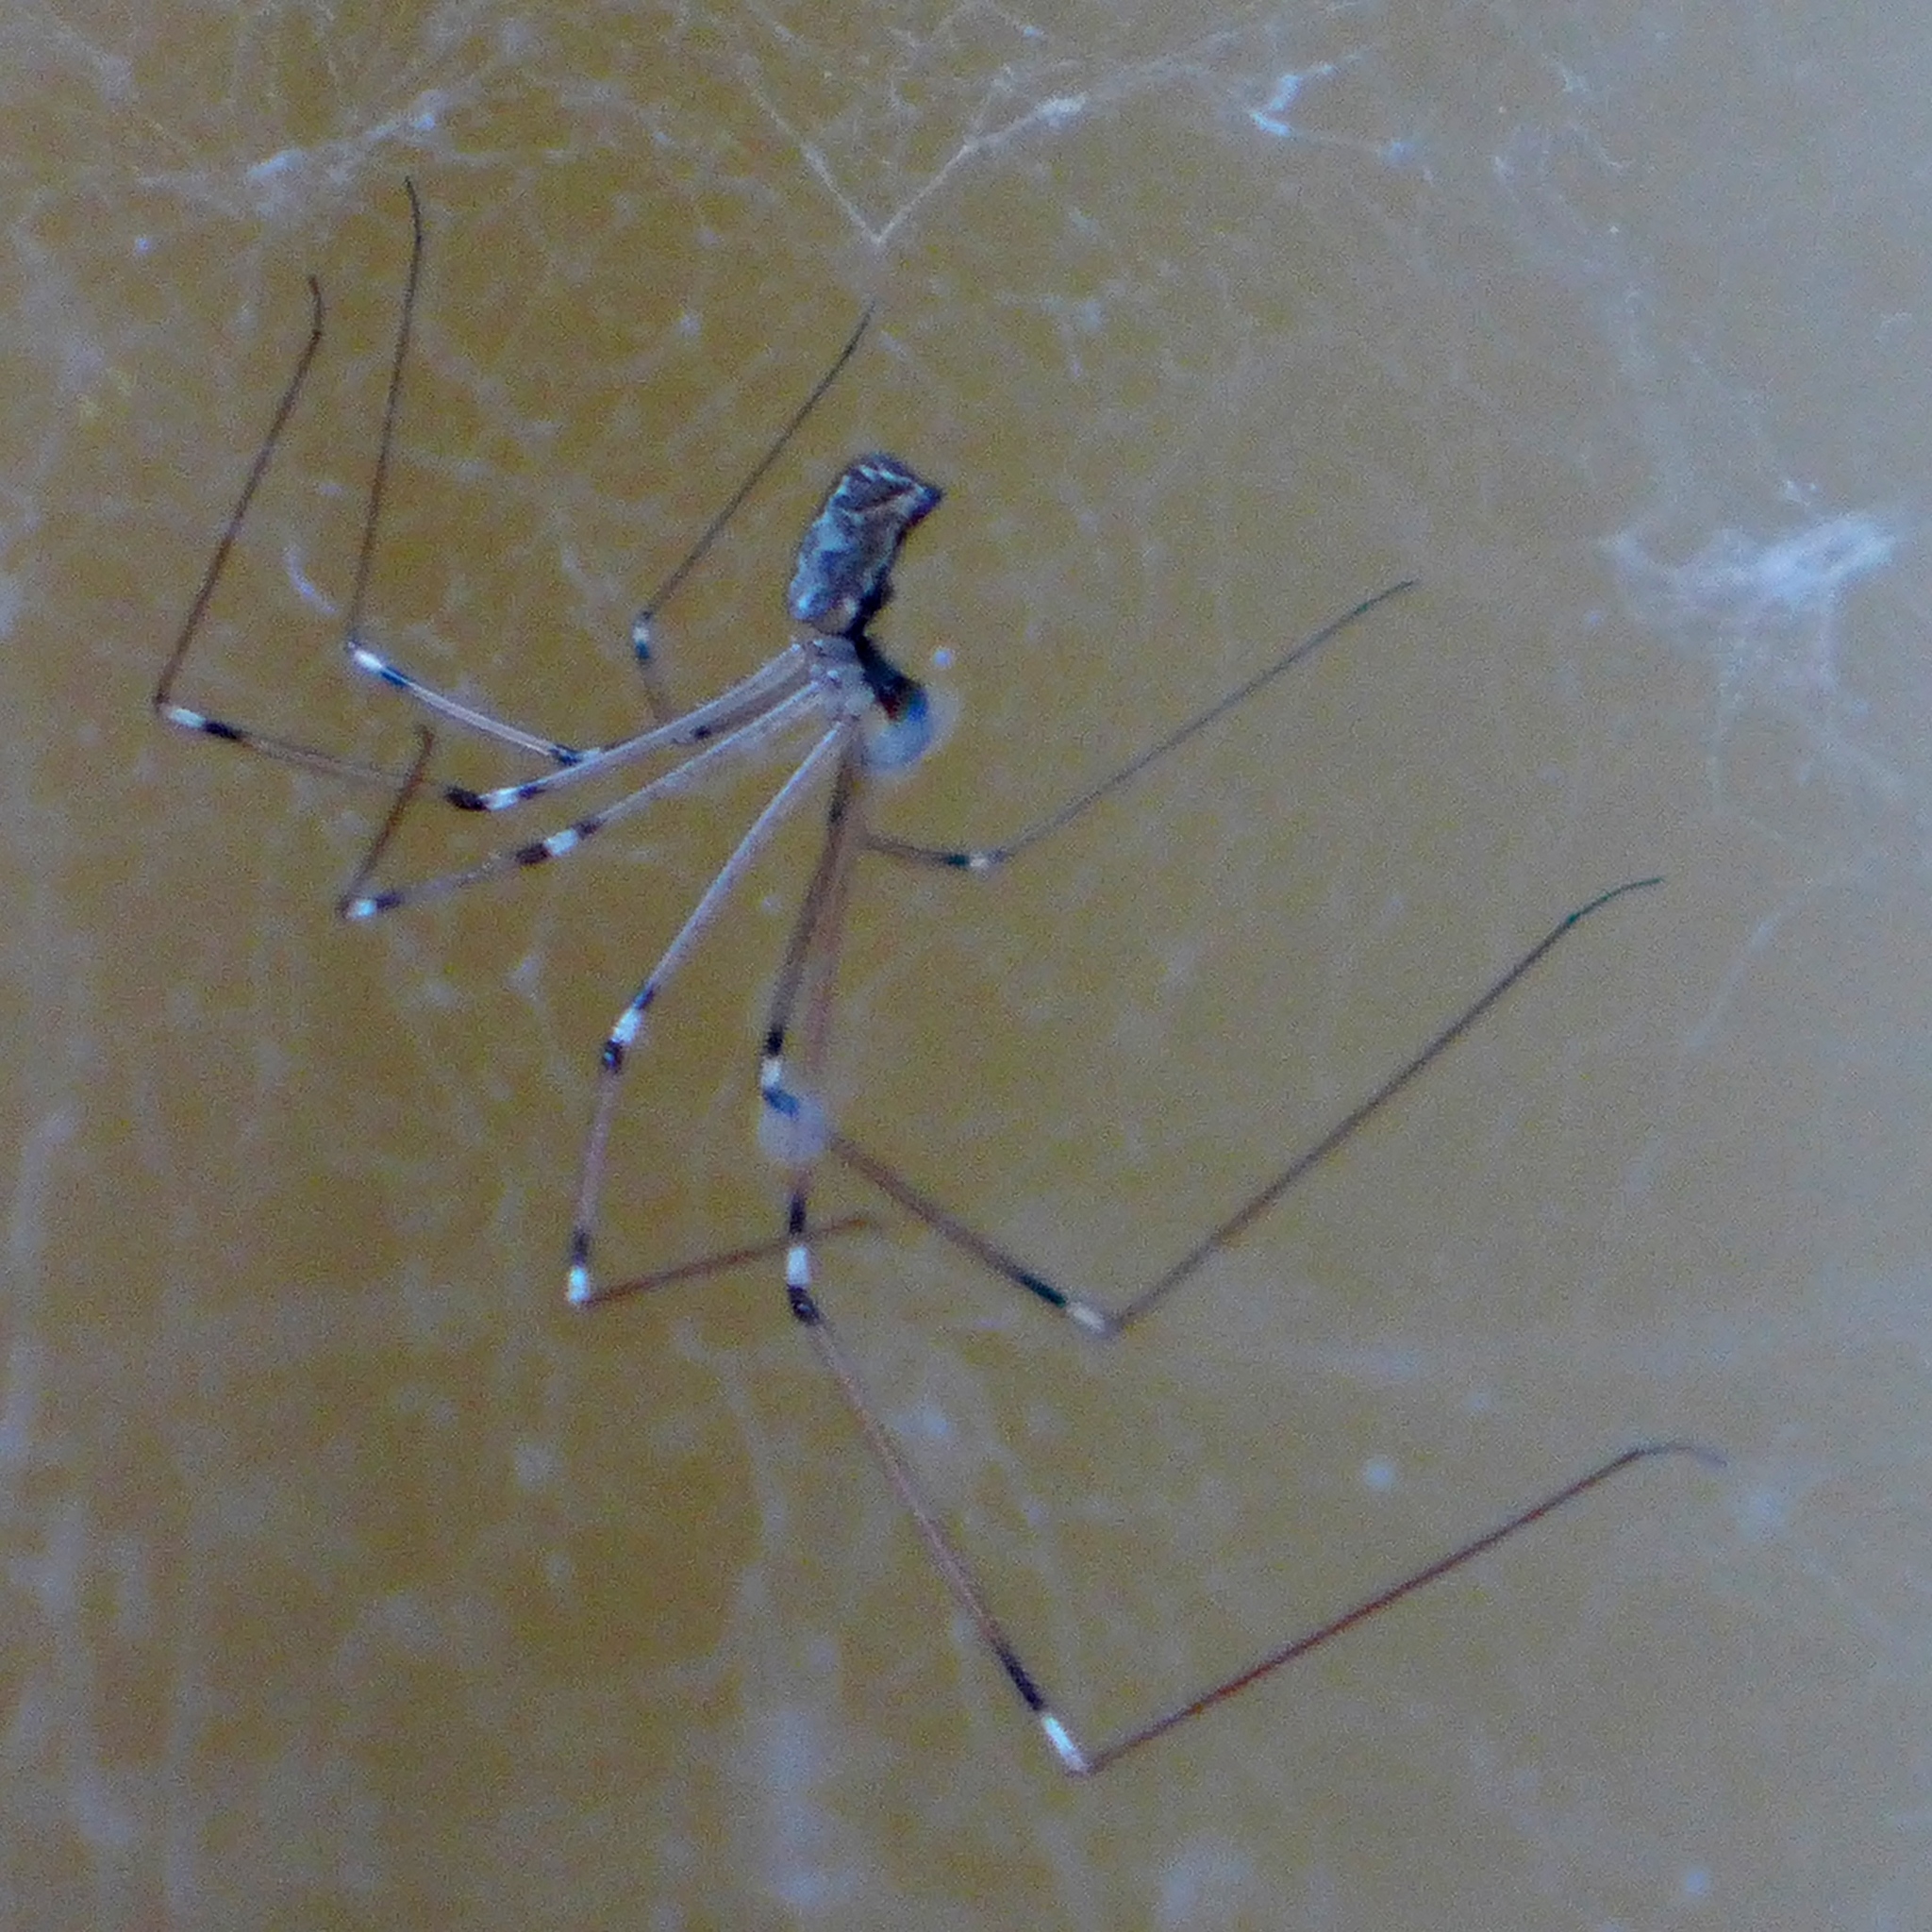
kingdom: Animalia
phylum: Arthropoda
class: Arachnida
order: Araneae
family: Pholcidae
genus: Pholcus
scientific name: Pholcus phalangioides
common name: Longbodied cellar spider
